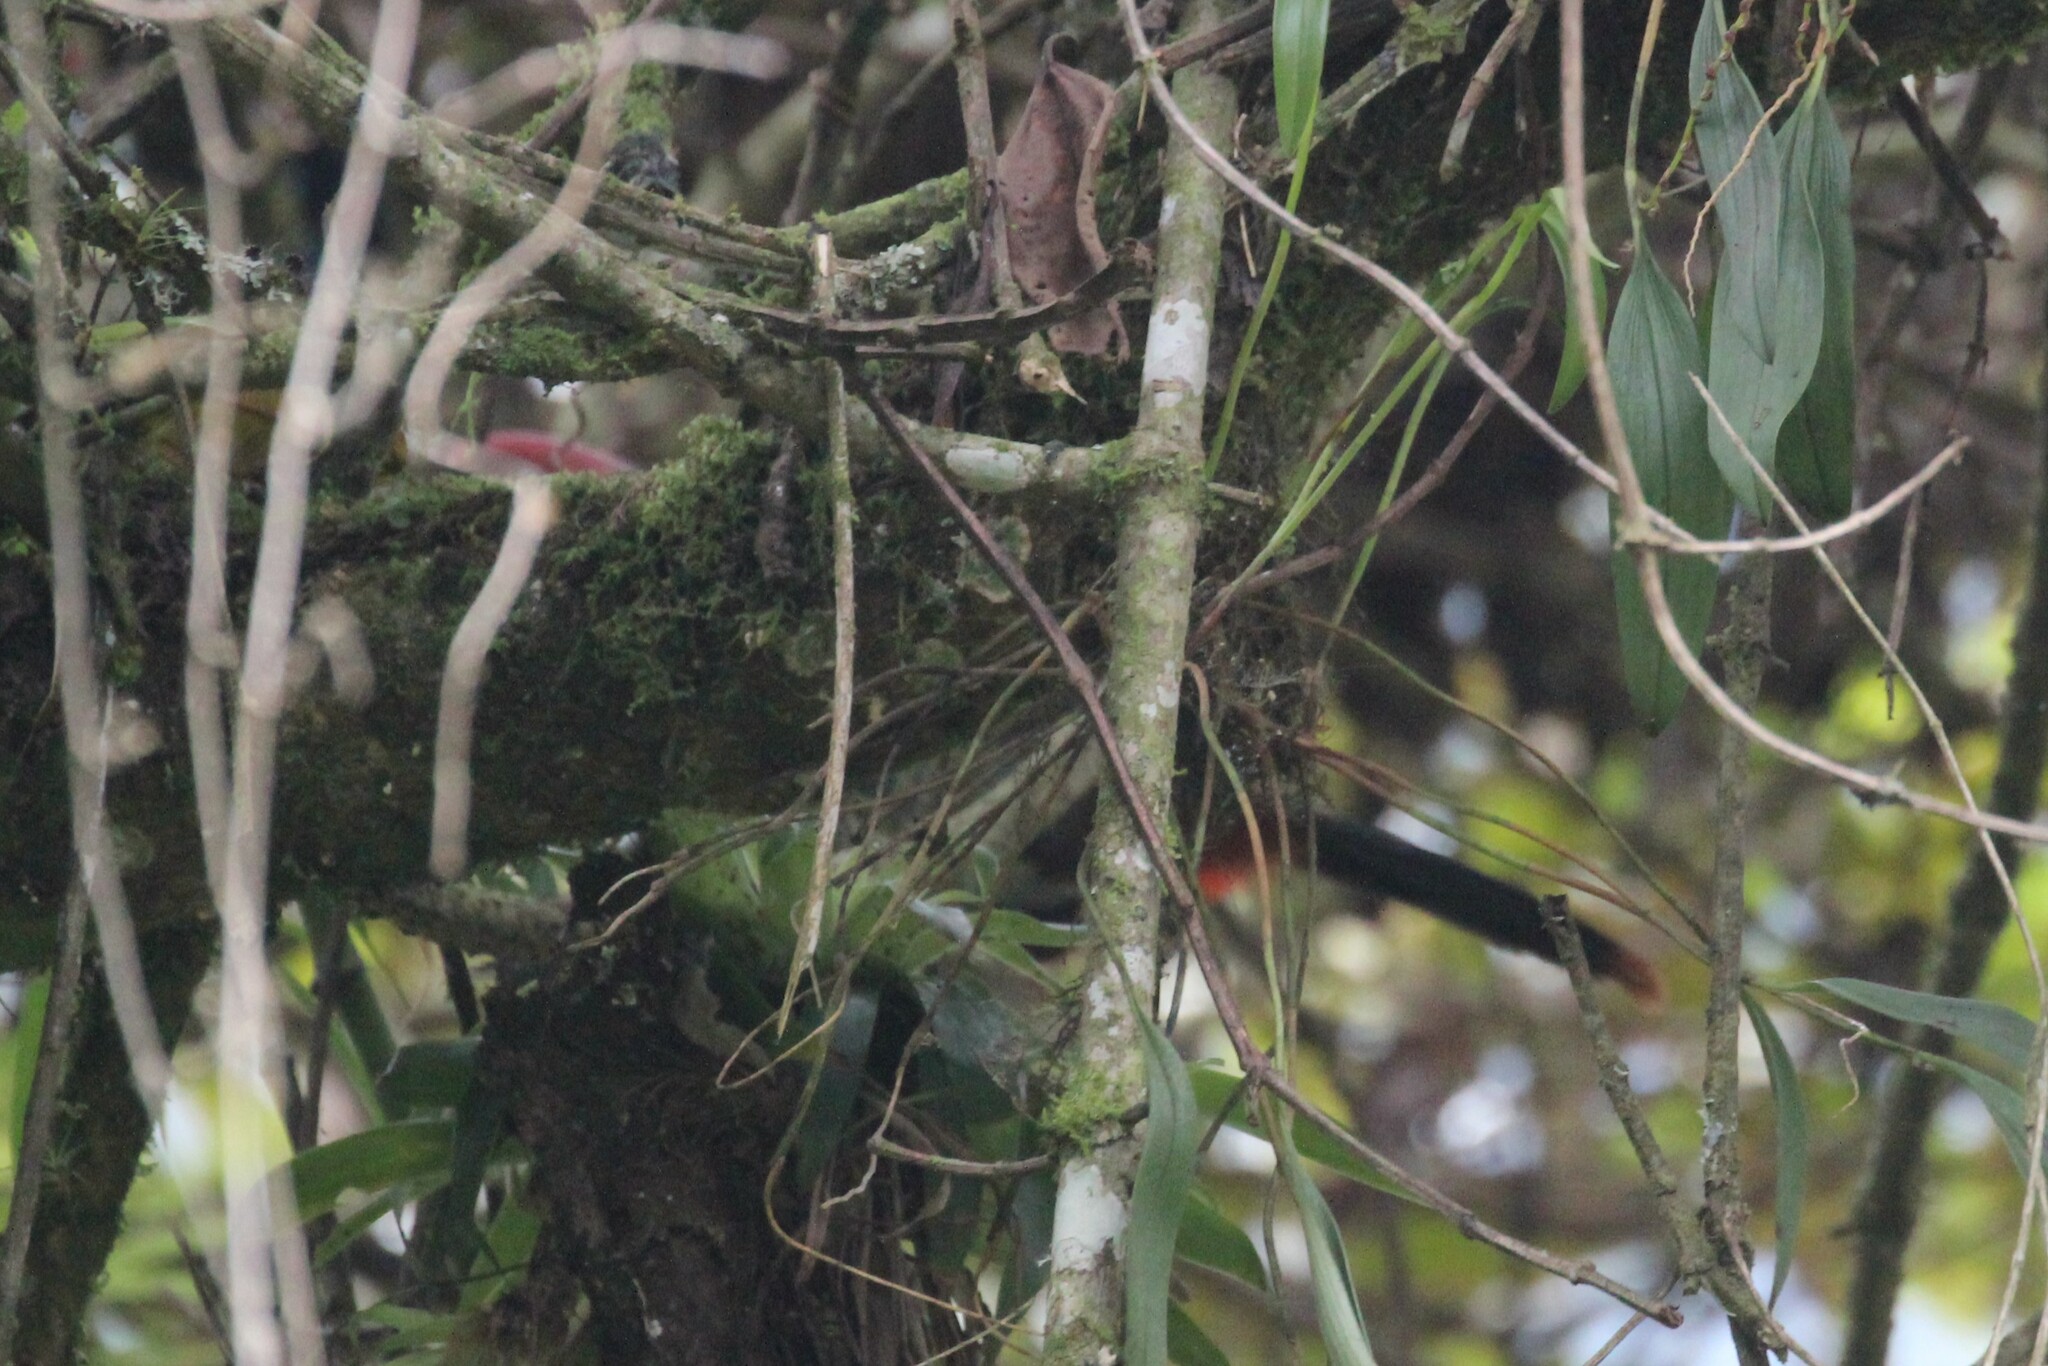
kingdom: Animalia
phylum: Chordata
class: Aves
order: Piciformes
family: Ramphastidae
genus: Andigena
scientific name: Andigena hypoglauca
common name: Grey-breasted mountain toucan
